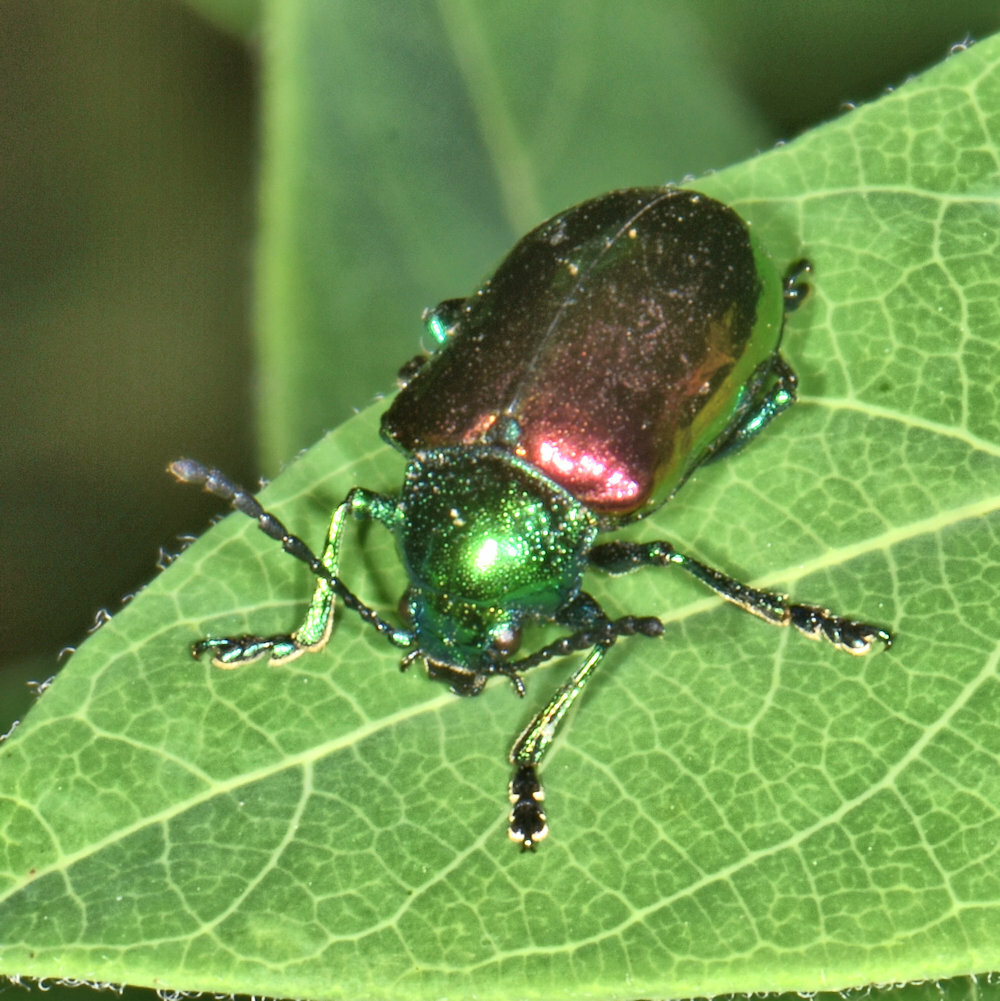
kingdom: Animalia
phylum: Arthropoda
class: Insecta
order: Coleoptera
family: Chrysomelidae
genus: Chrysochus
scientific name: Chrysochus auratus
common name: Dogbane leaf beetle
